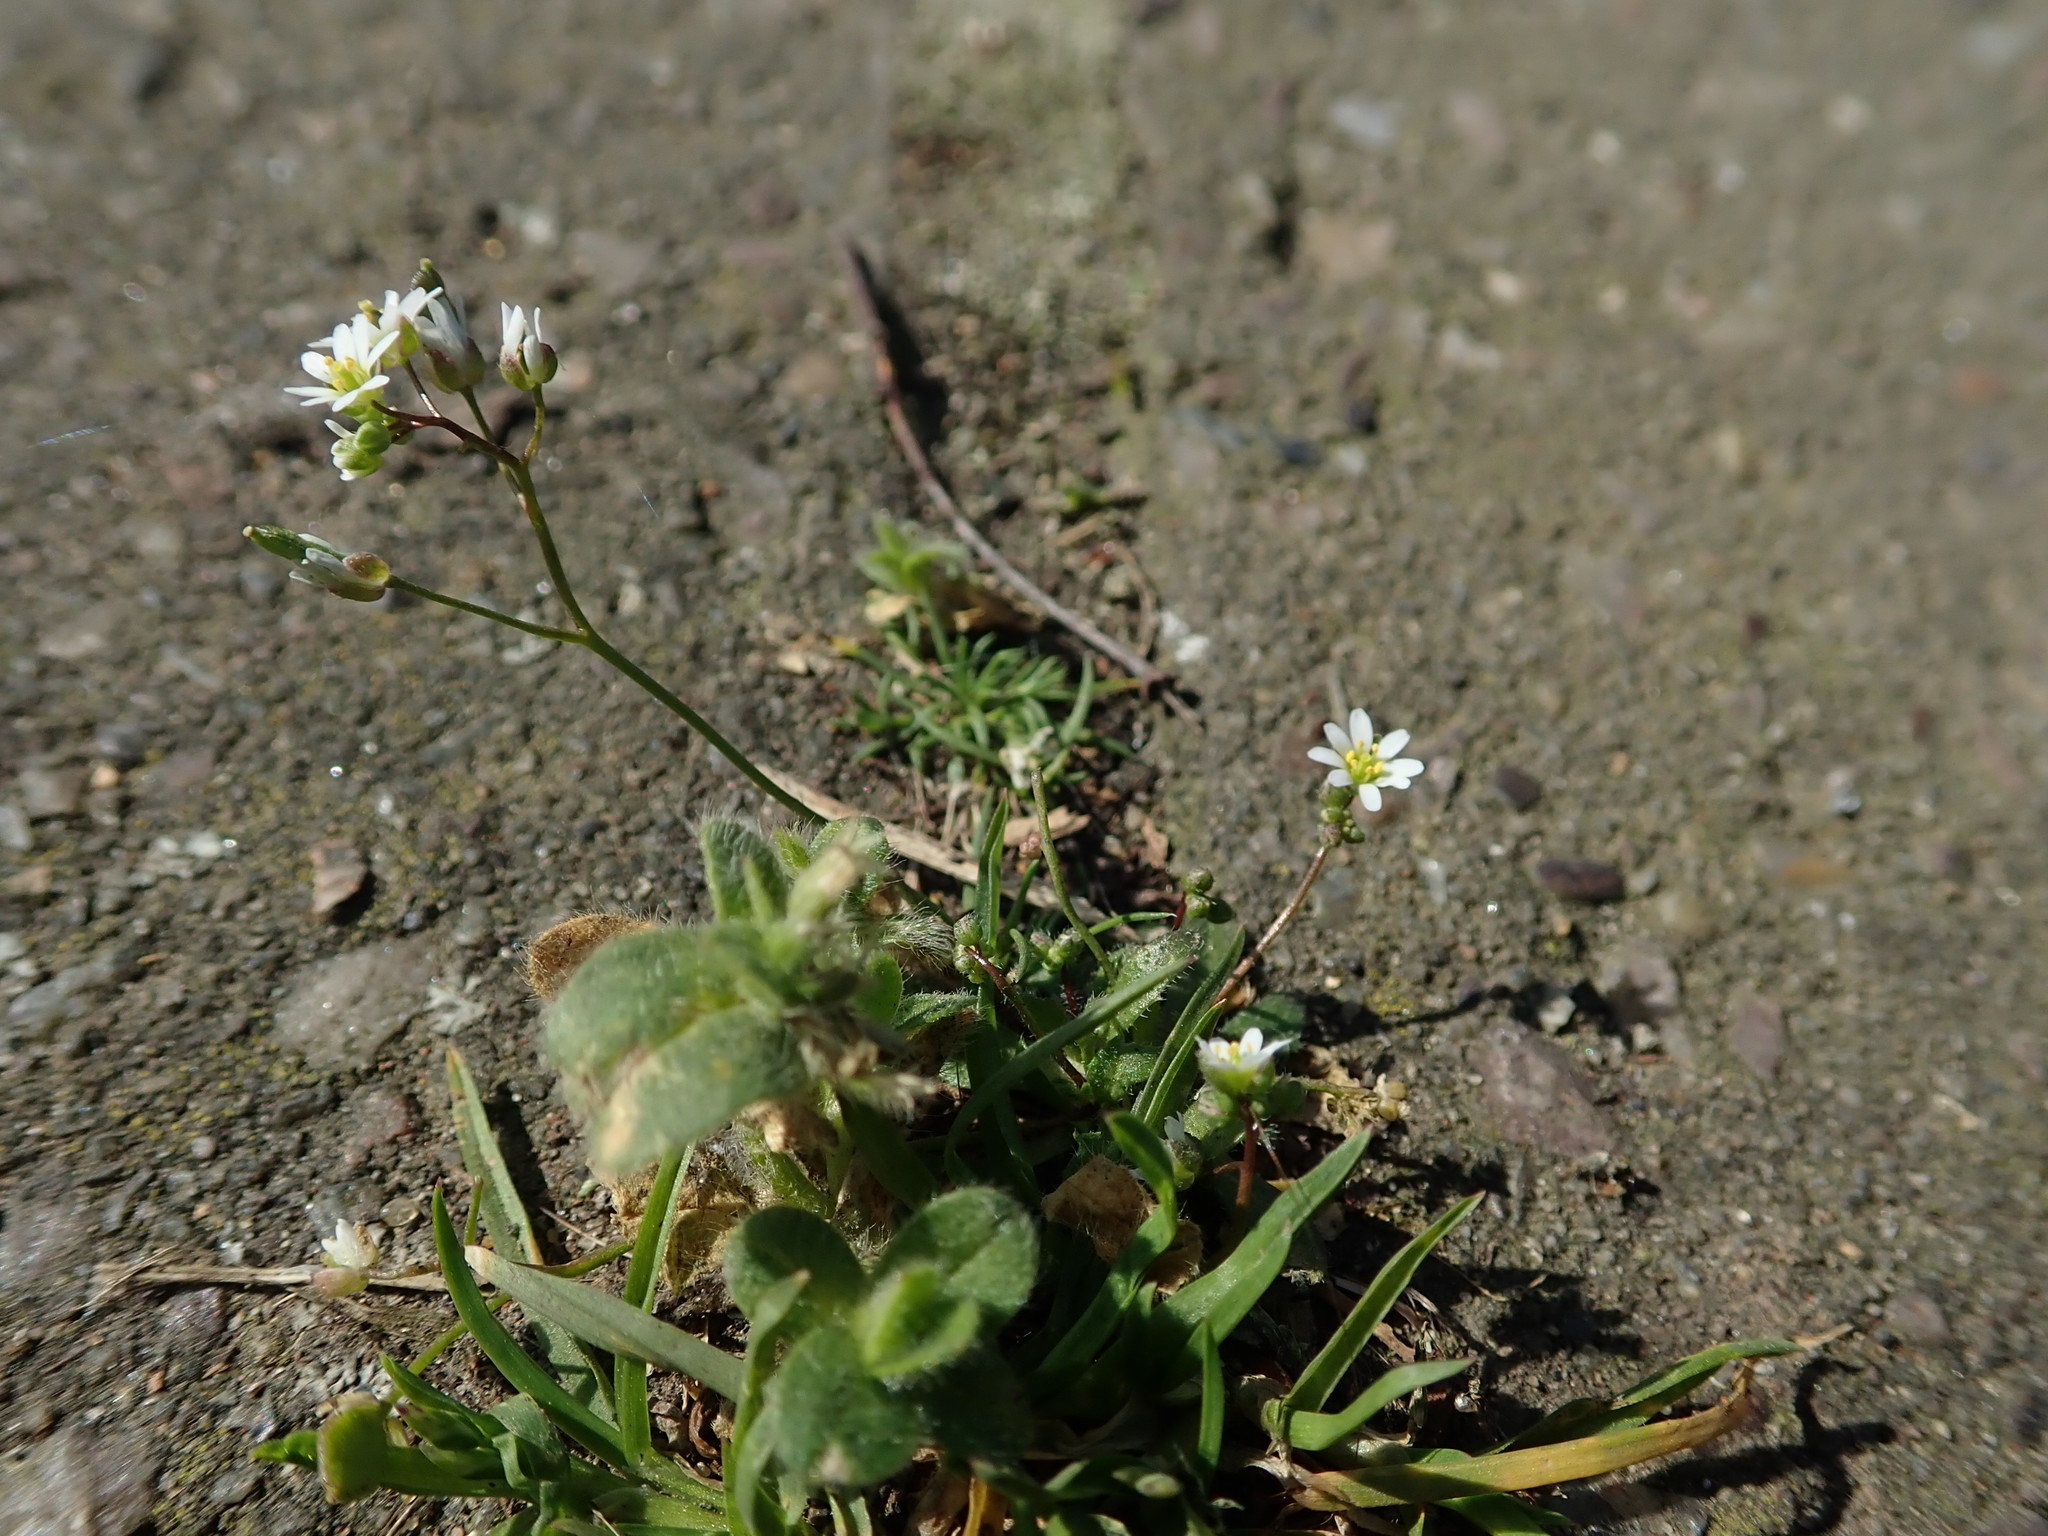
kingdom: Plantae
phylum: Tracheophyta
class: Magnoliopsida
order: Brassicales
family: Brassicaceae
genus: Draba
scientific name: Draba verna
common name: Spring draba
